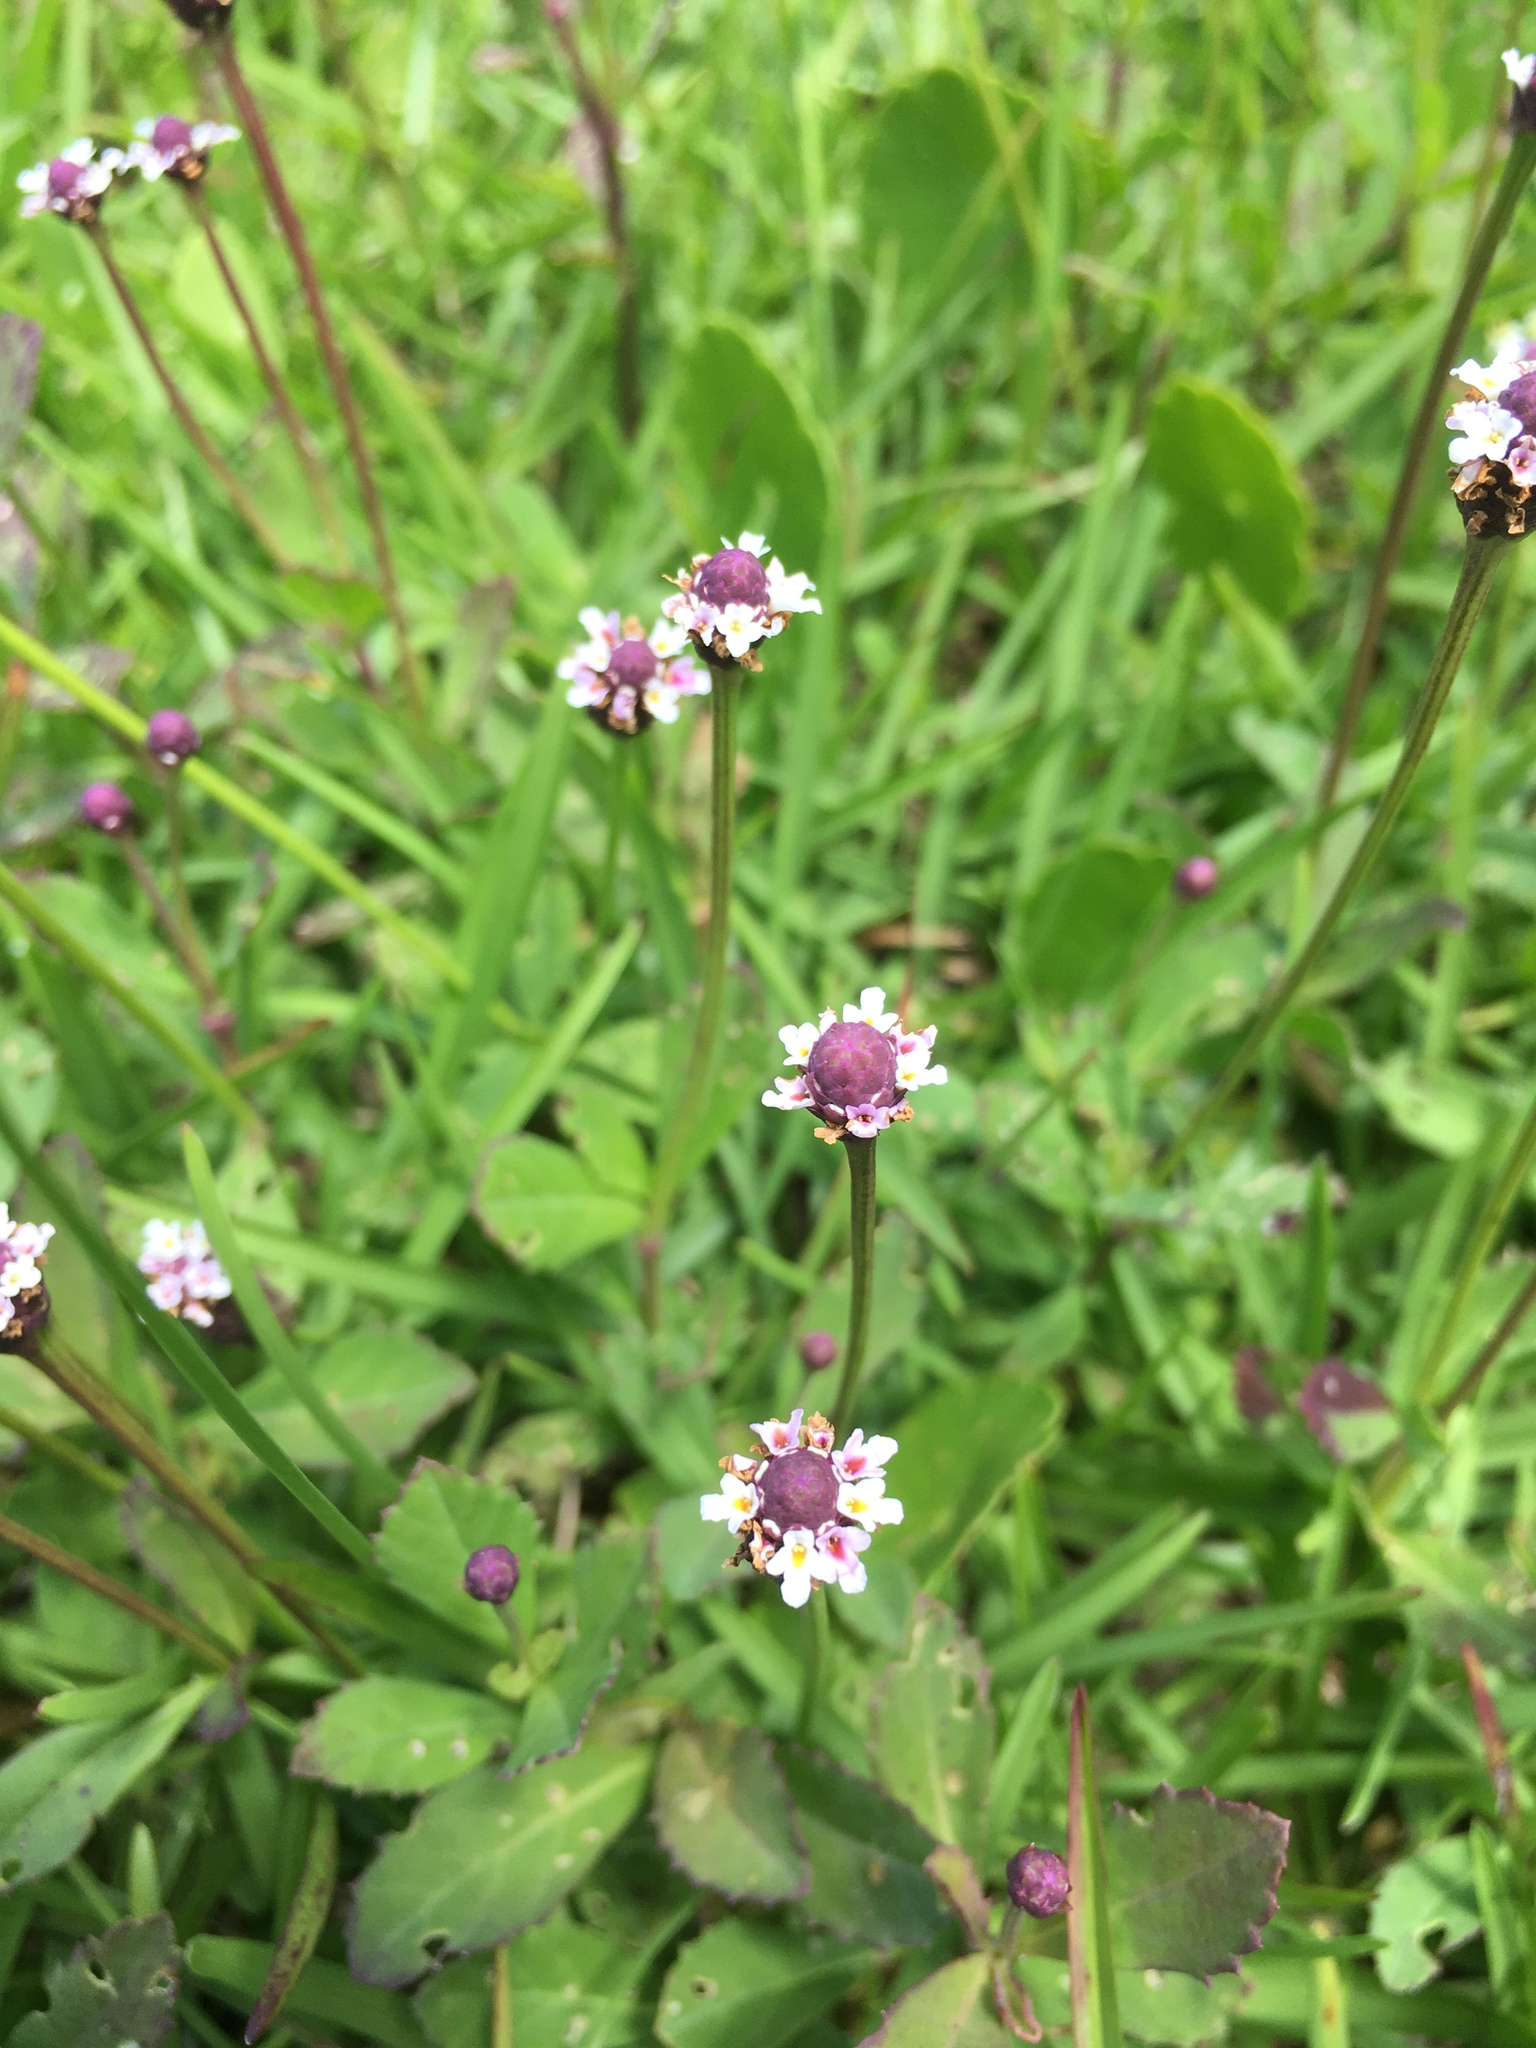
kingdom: Plantae
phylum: Tracheophyta
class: Magnoliopsida
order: Lamiales
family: Verbenaceae
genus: Phyla
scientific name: Phyla nodiflora
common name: Frogfruit
